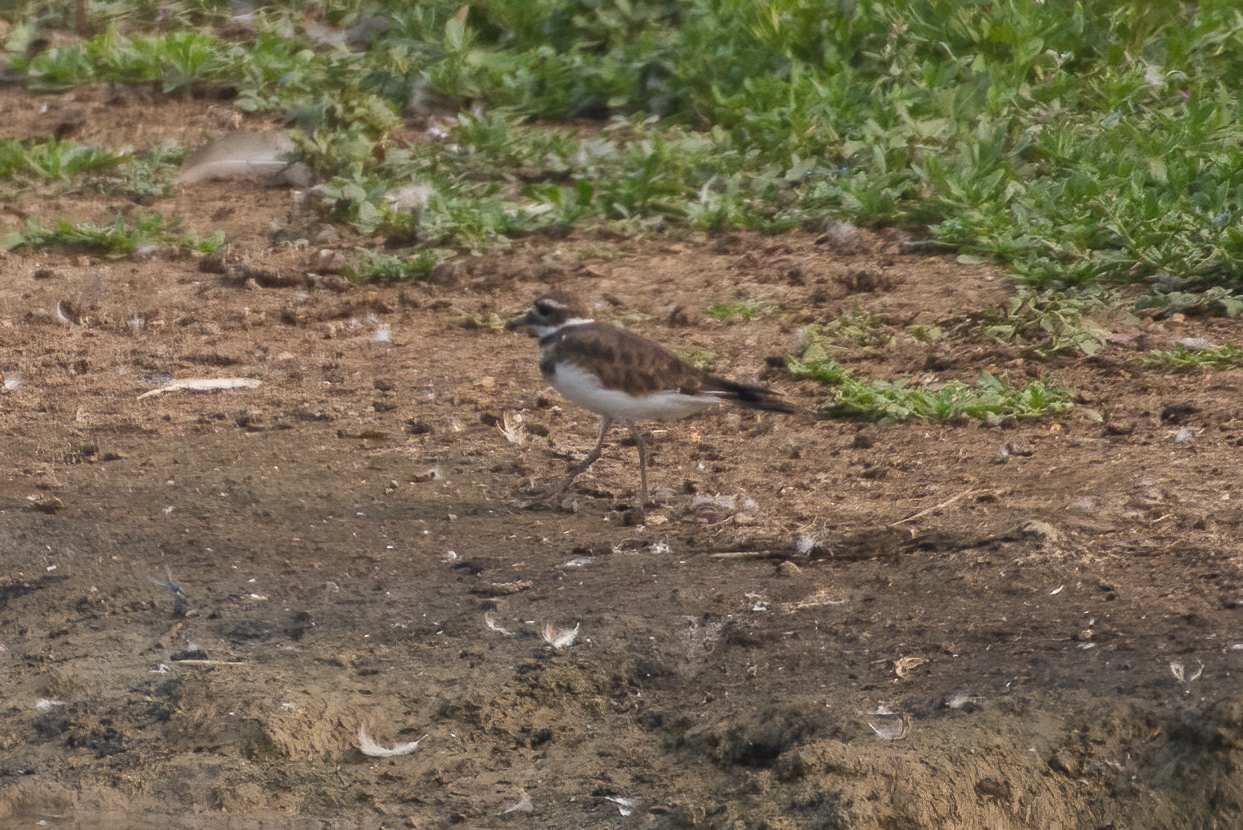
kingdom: Animalia
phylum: Chordata
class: Aves
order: Charadriiformes
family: Charadriidae
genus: Charadrius
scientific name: Charadrius vociferus
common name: Killdeer
